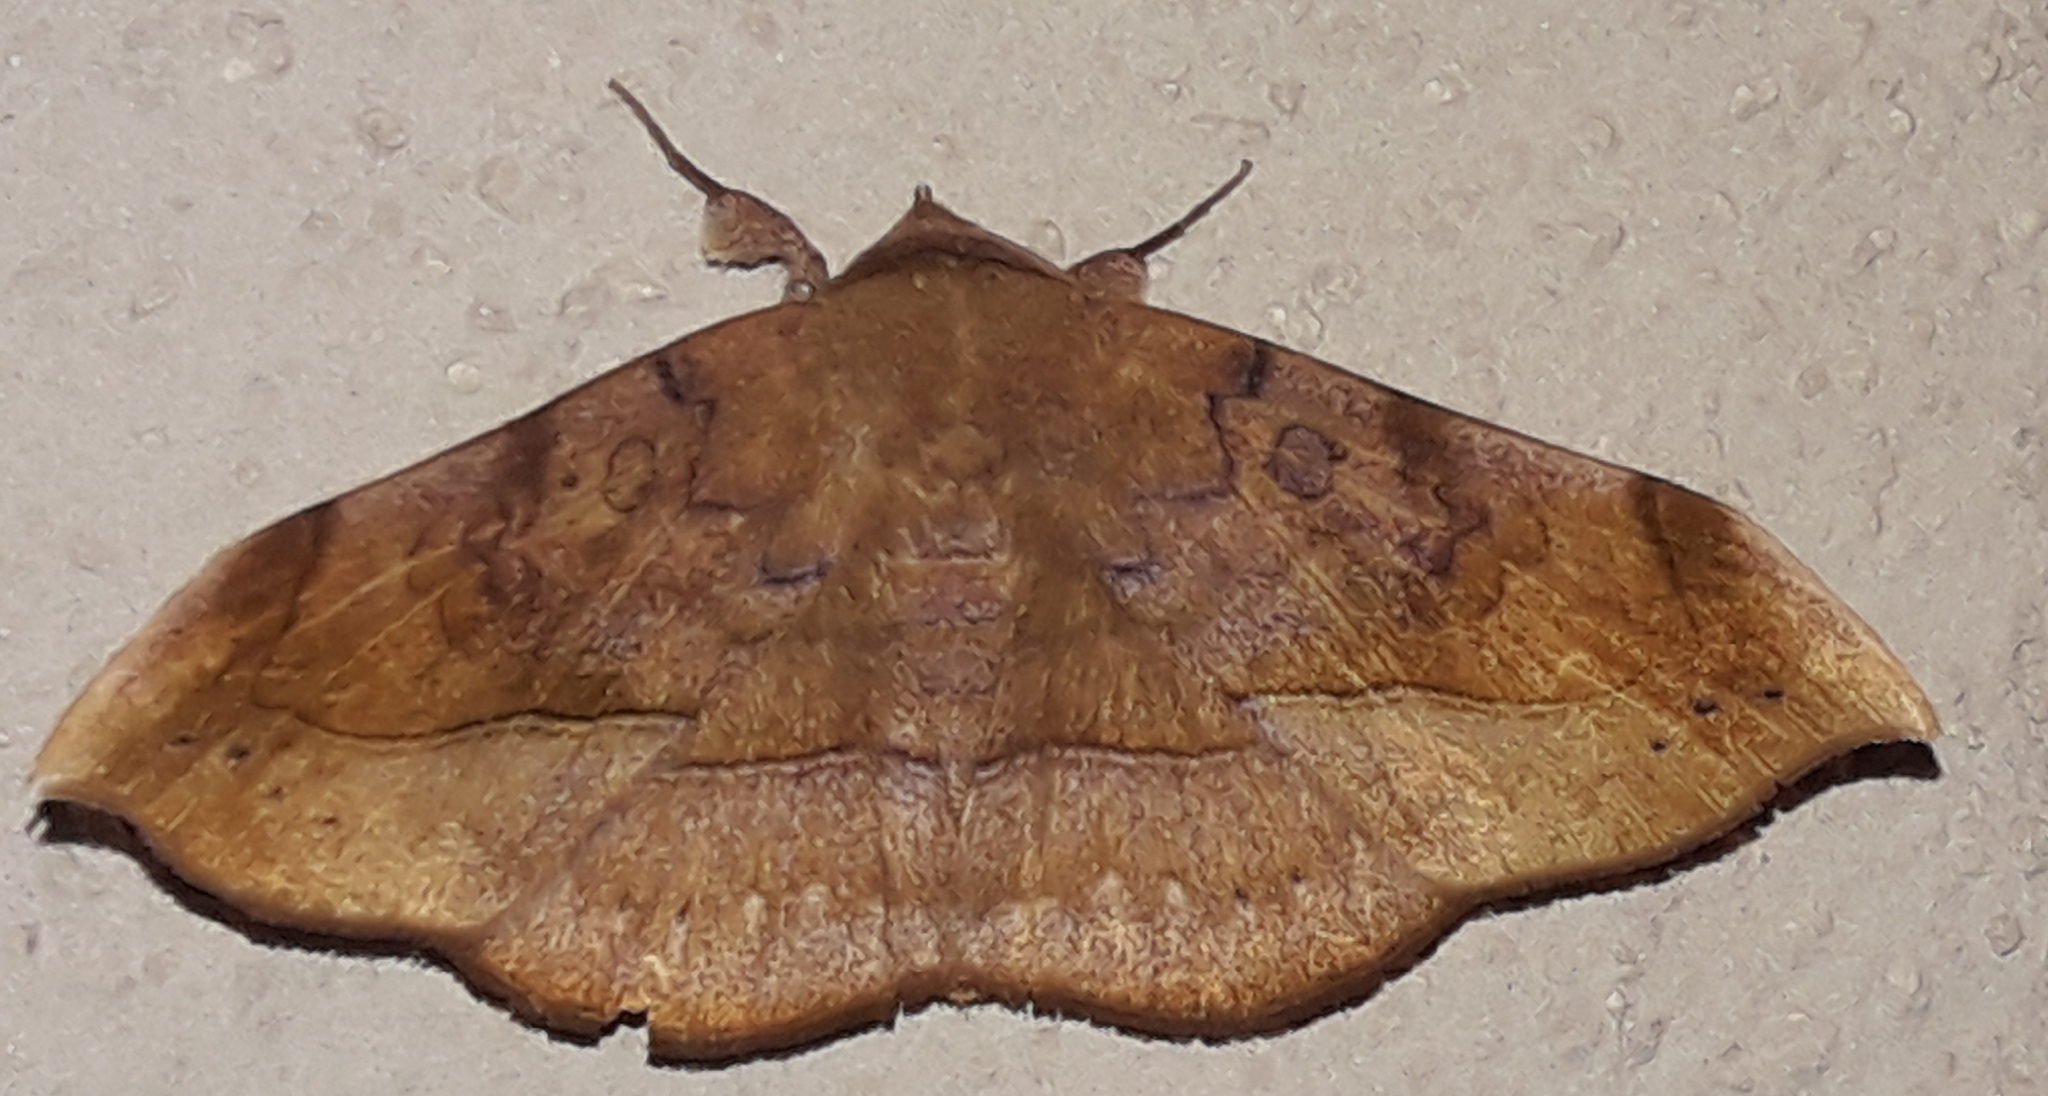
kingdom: Animalia
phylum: Arthropoda
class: Insecta
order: Lepidoptera
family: Erebidae
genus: Argidia
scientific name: Argidia palmipes
